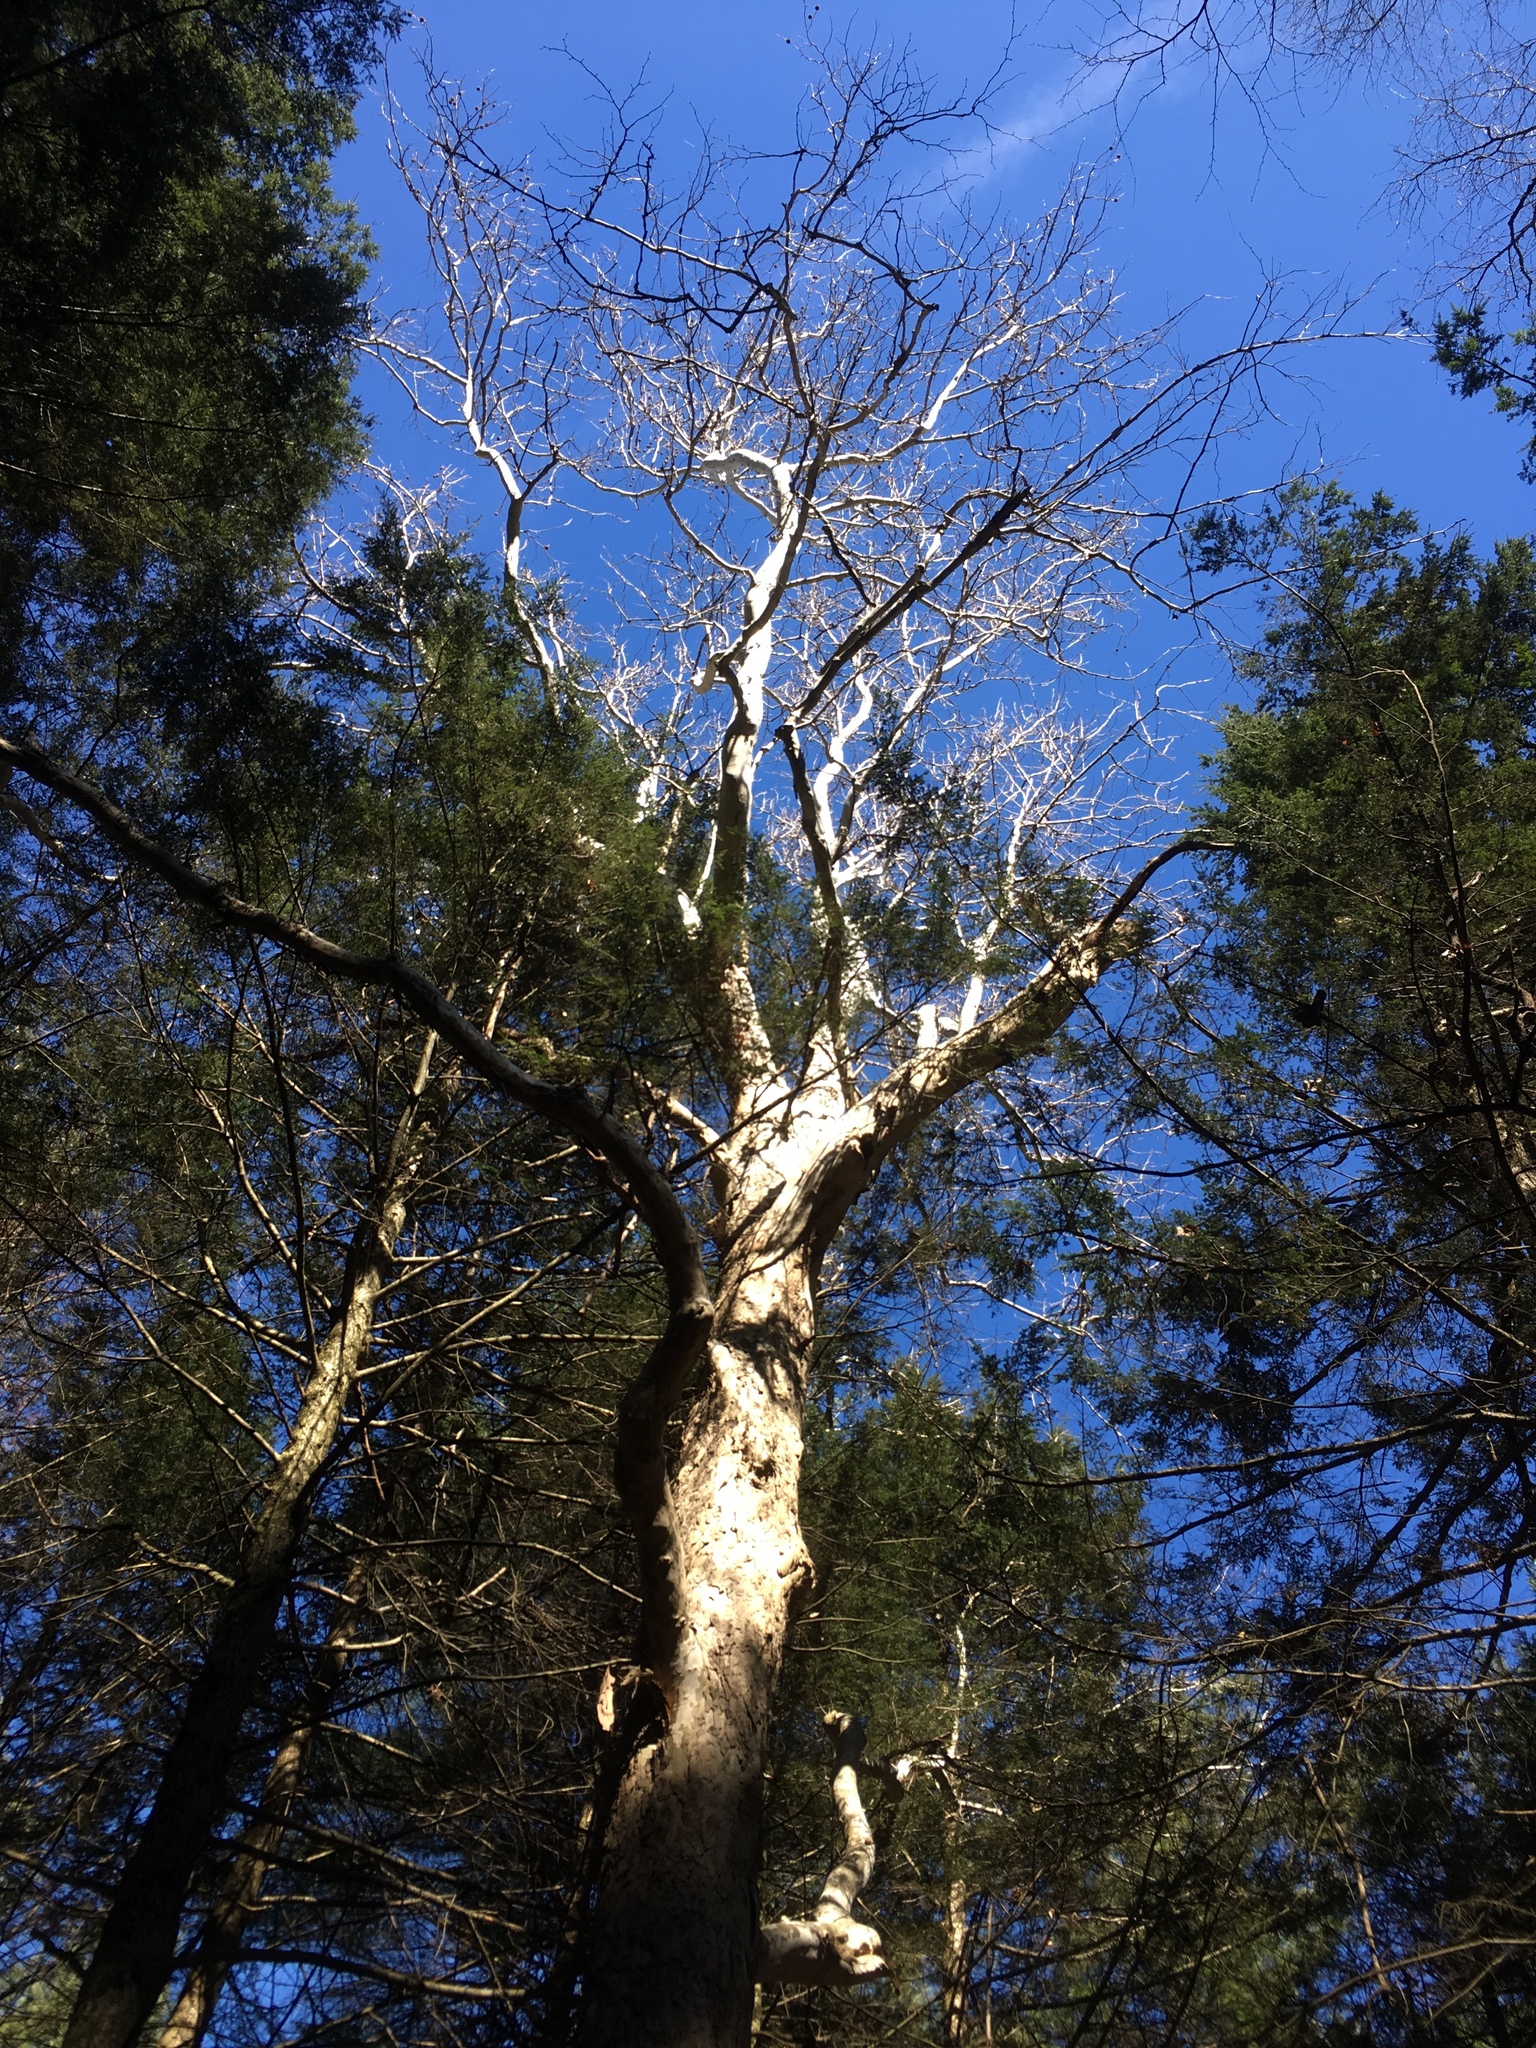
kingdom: Plantae
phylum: Tracheophyta
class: Magnoliopsida
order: Proteales
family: Platanaceae
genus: Platanus
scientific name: Platanus occidentalis
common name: American sycamore
